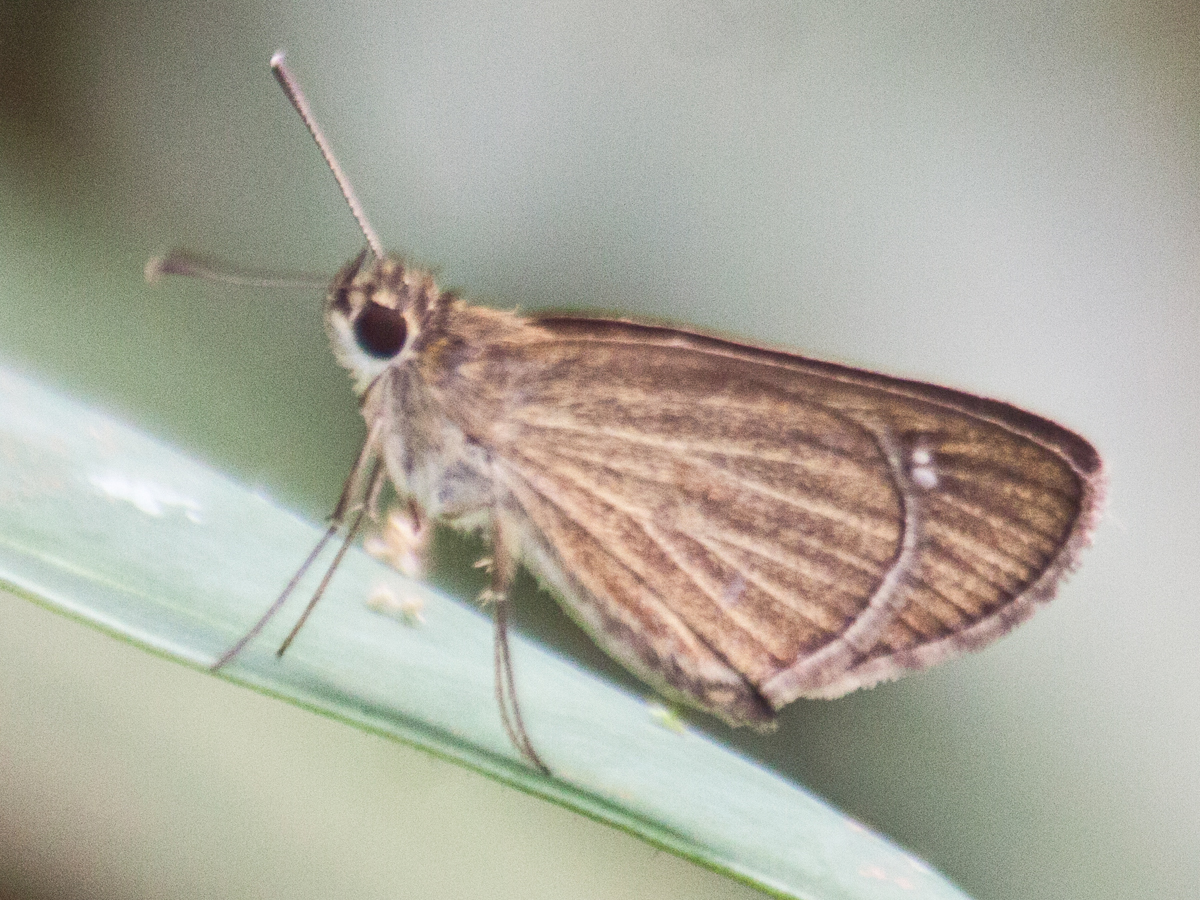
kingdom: Animalia
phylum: Arthropoda
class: Insecta
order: Lepidoptera
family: Hesperiidae
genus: Suada
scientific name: Suada swerga
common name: Grass bob
